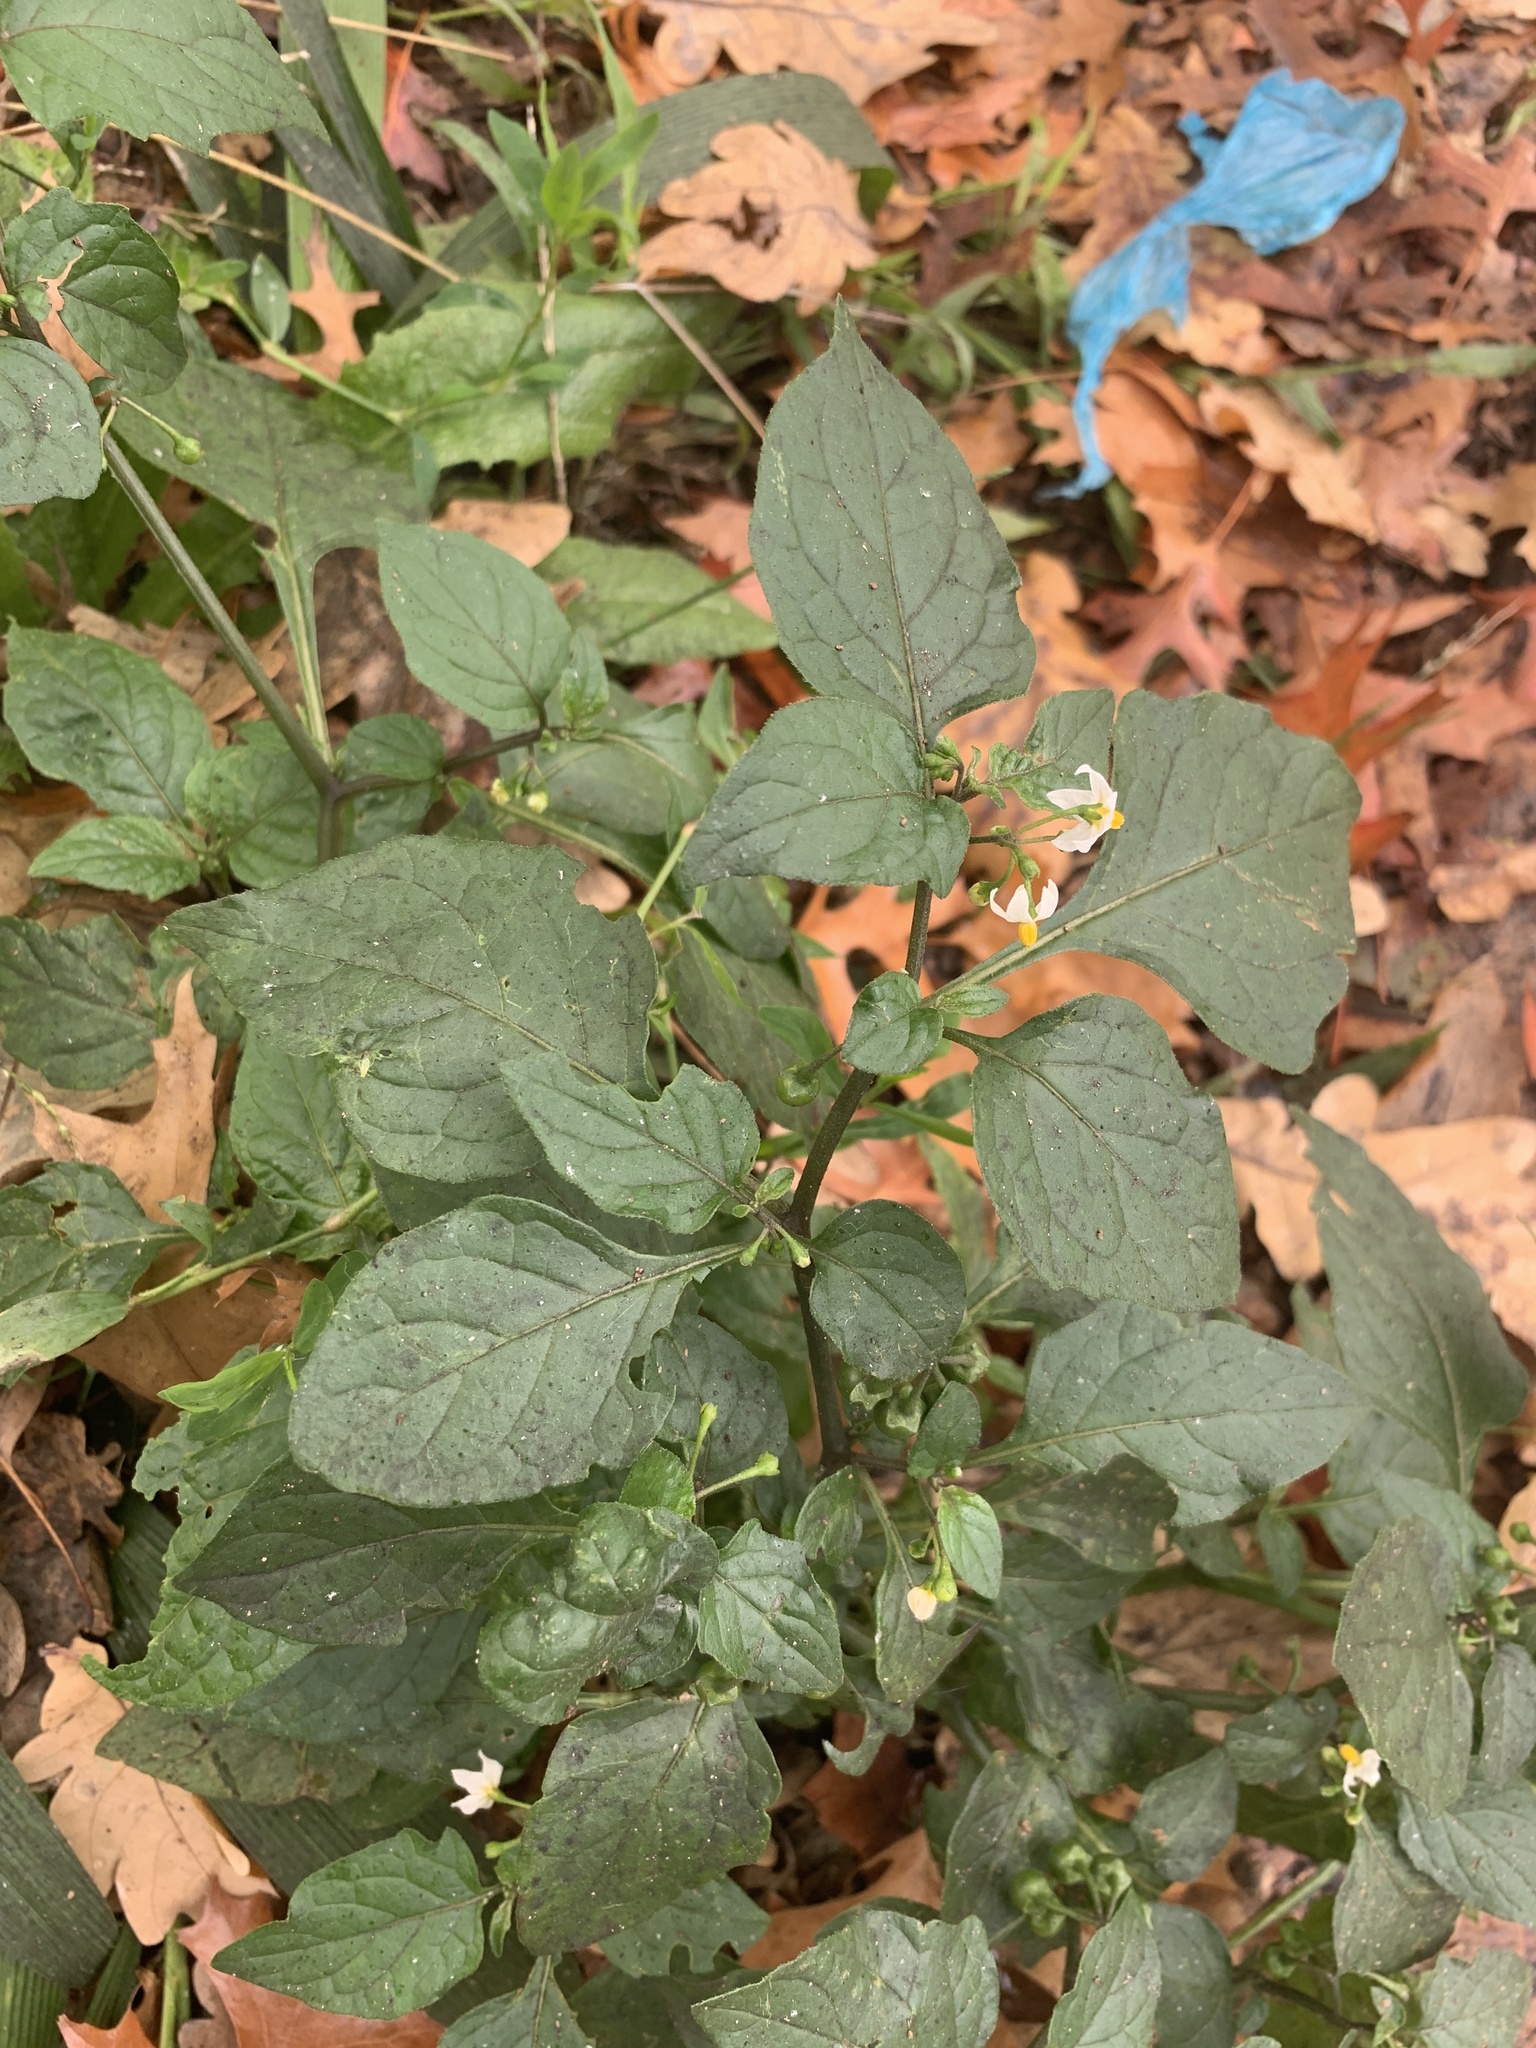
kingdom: Plantae
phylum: Tracheophyta
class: Magnoliopsida
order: Solanales
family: Solanaceae
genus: Solanum
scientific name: Solanum nigrum
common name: Black nightshade
